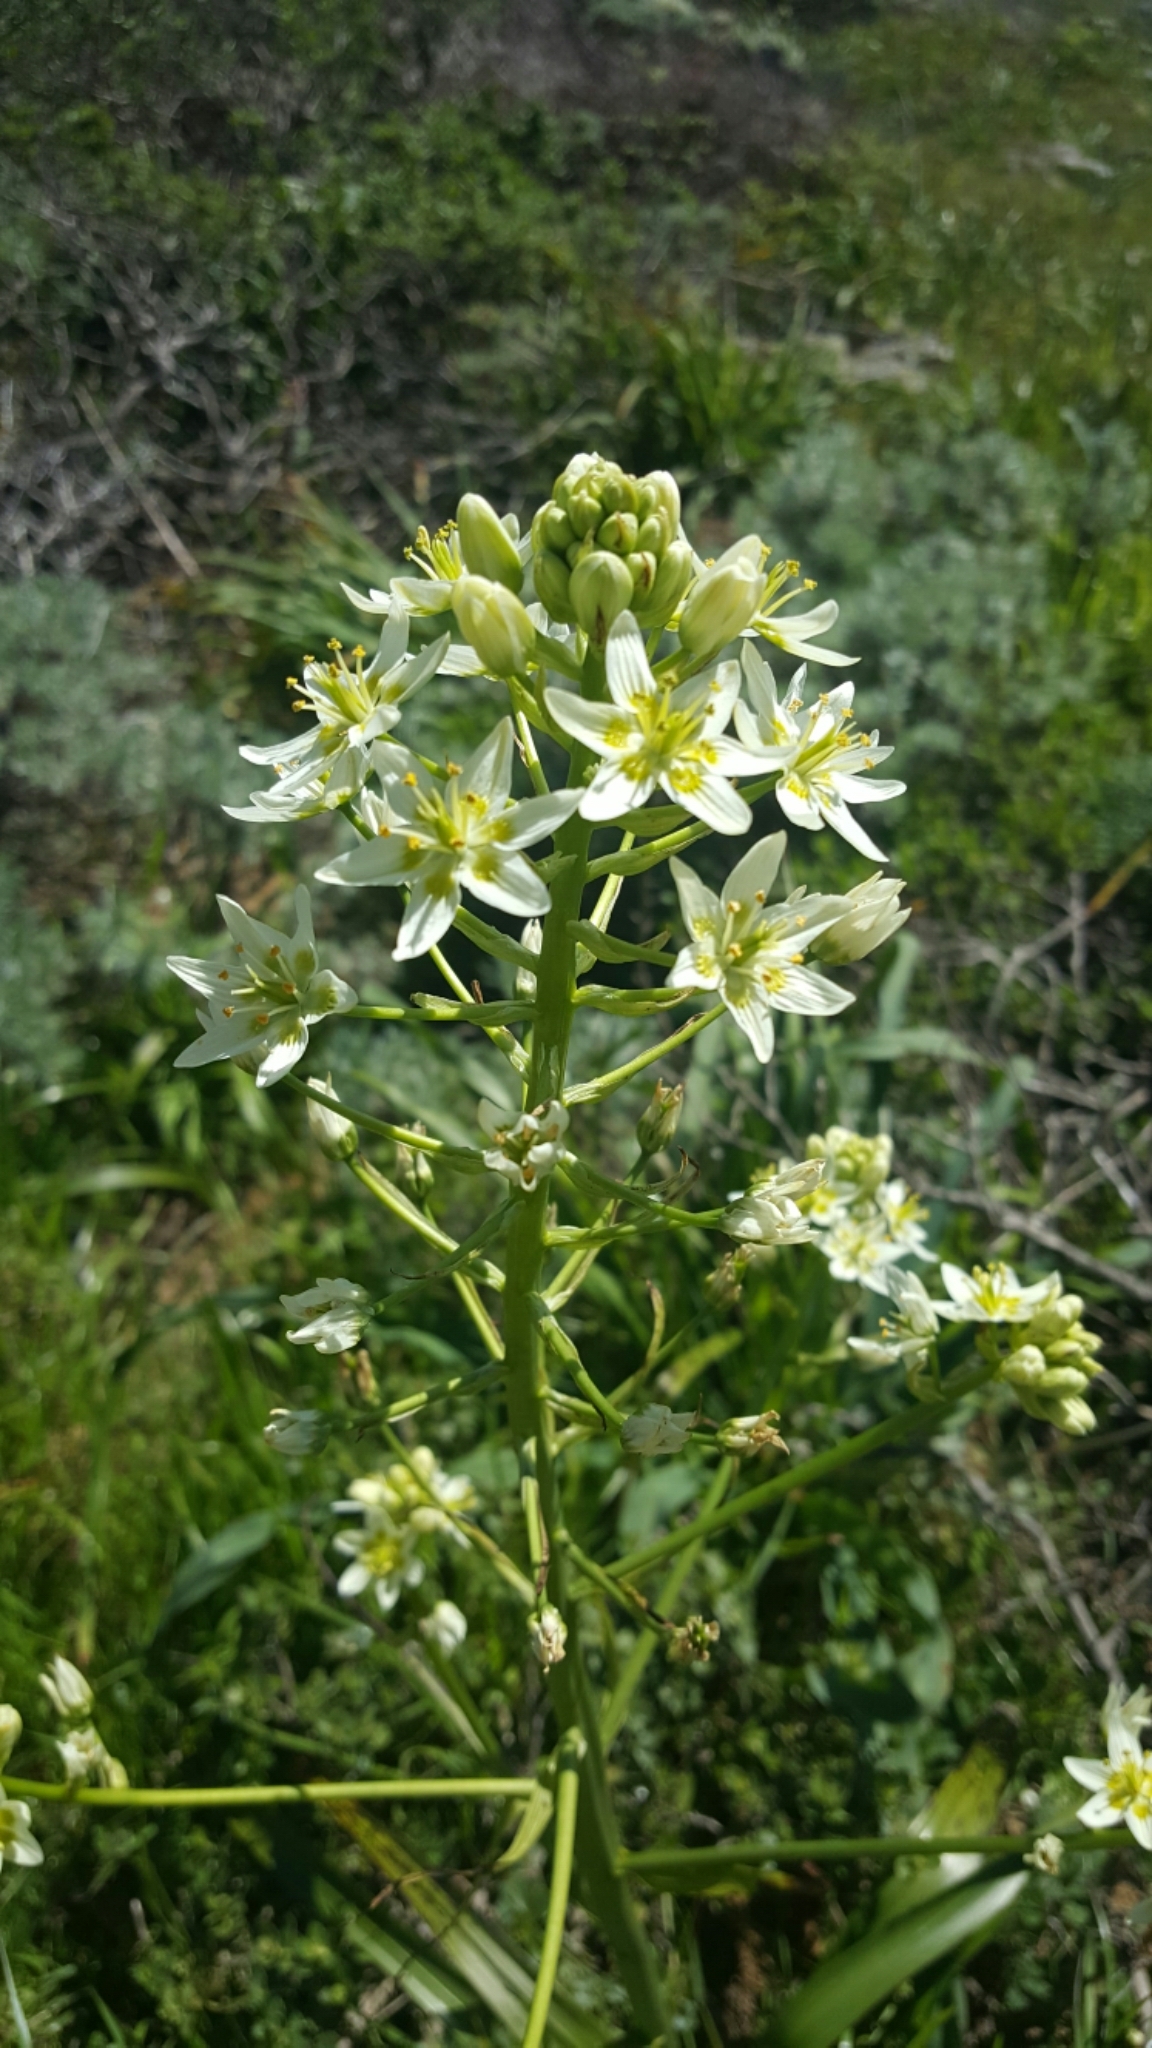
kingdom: Plantae
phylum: Tracheophyta
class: Liliopsida
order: Liliales
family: Melanthiaceae
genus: Toxicoscordion
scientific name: Toxicoscordion fremontii
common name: Fremont's death camas
